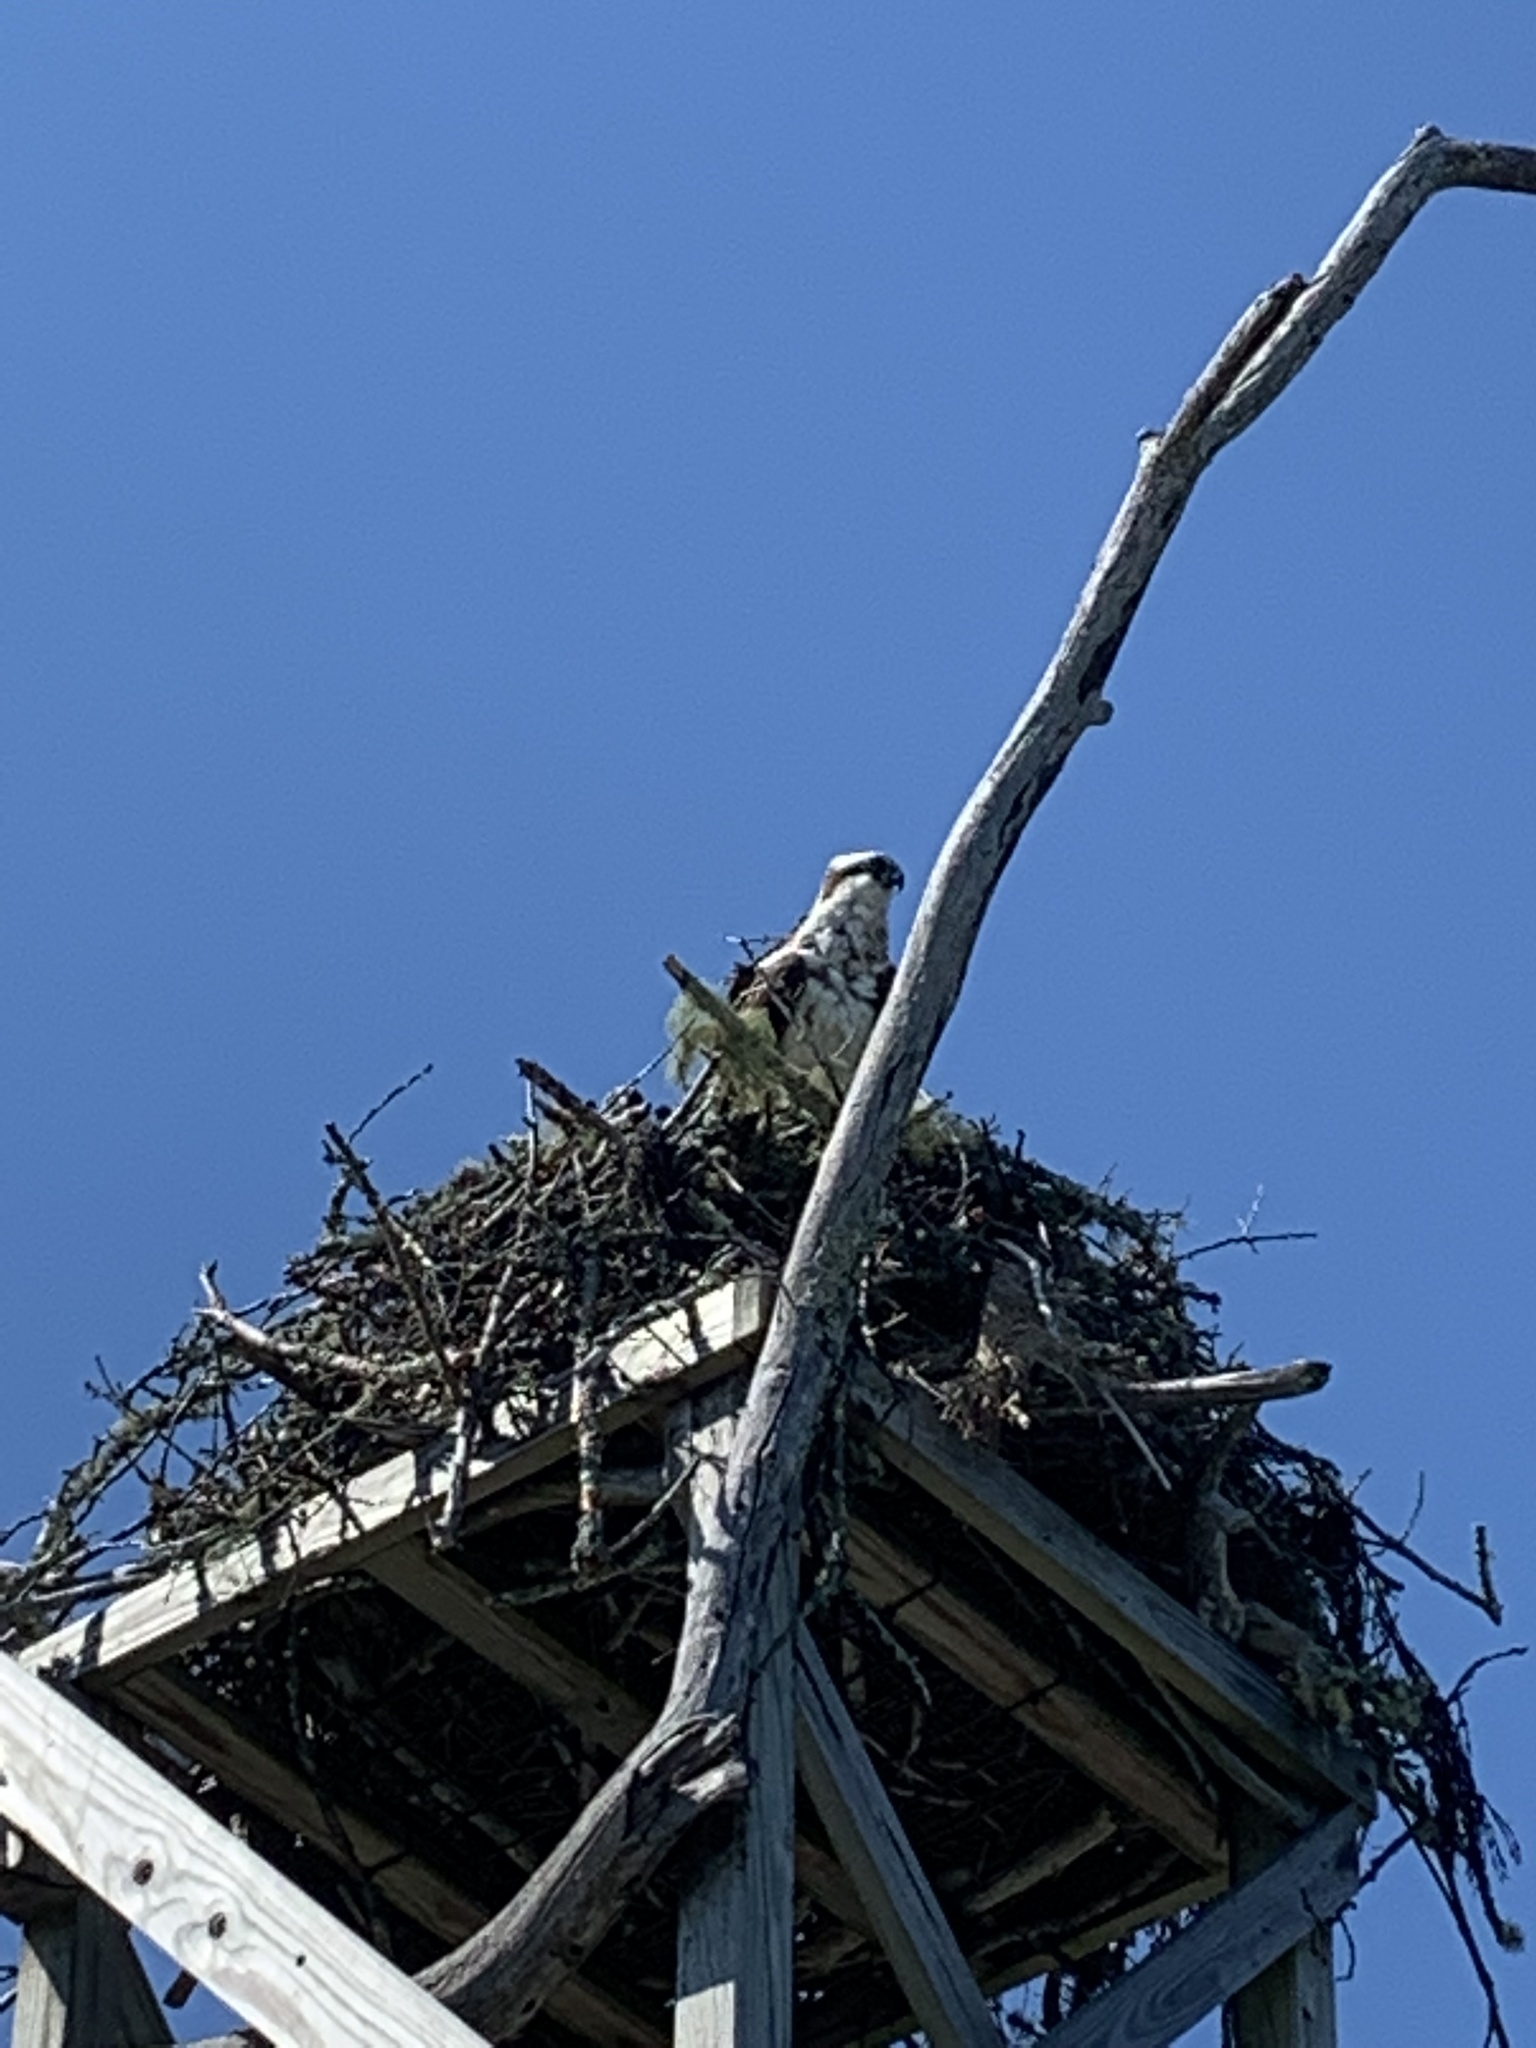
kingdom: Animalia
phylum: Chordata
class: Aves
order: Accipitriformes
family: Pandionidae
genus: Pandion
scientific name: Pandion haliaetus
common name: Osprey
